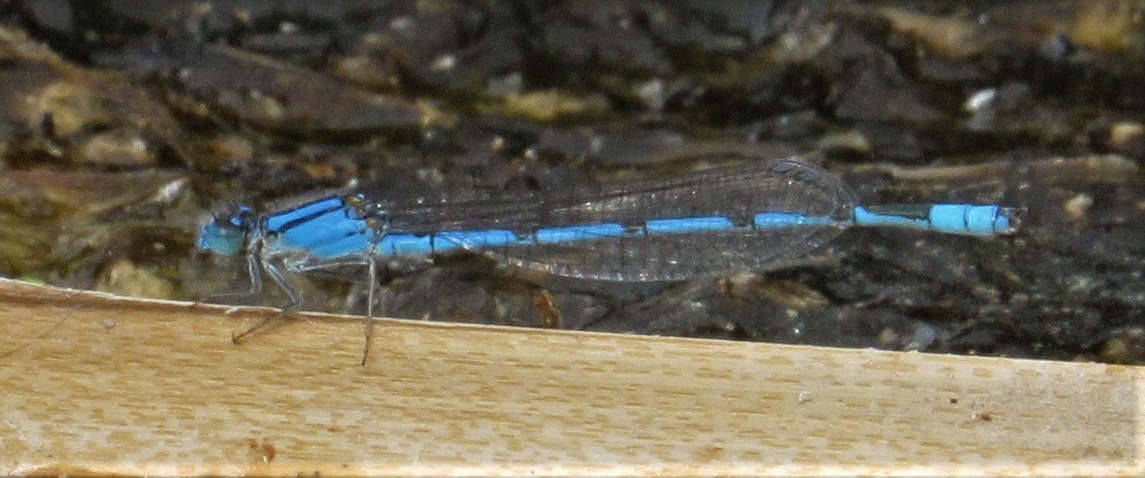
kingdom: Animalia
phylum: Arthropoda
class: Insecta
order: Odonata
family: Coenagrionidae
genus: Enallagma
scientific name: Enallagma civile
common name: Damselfly
